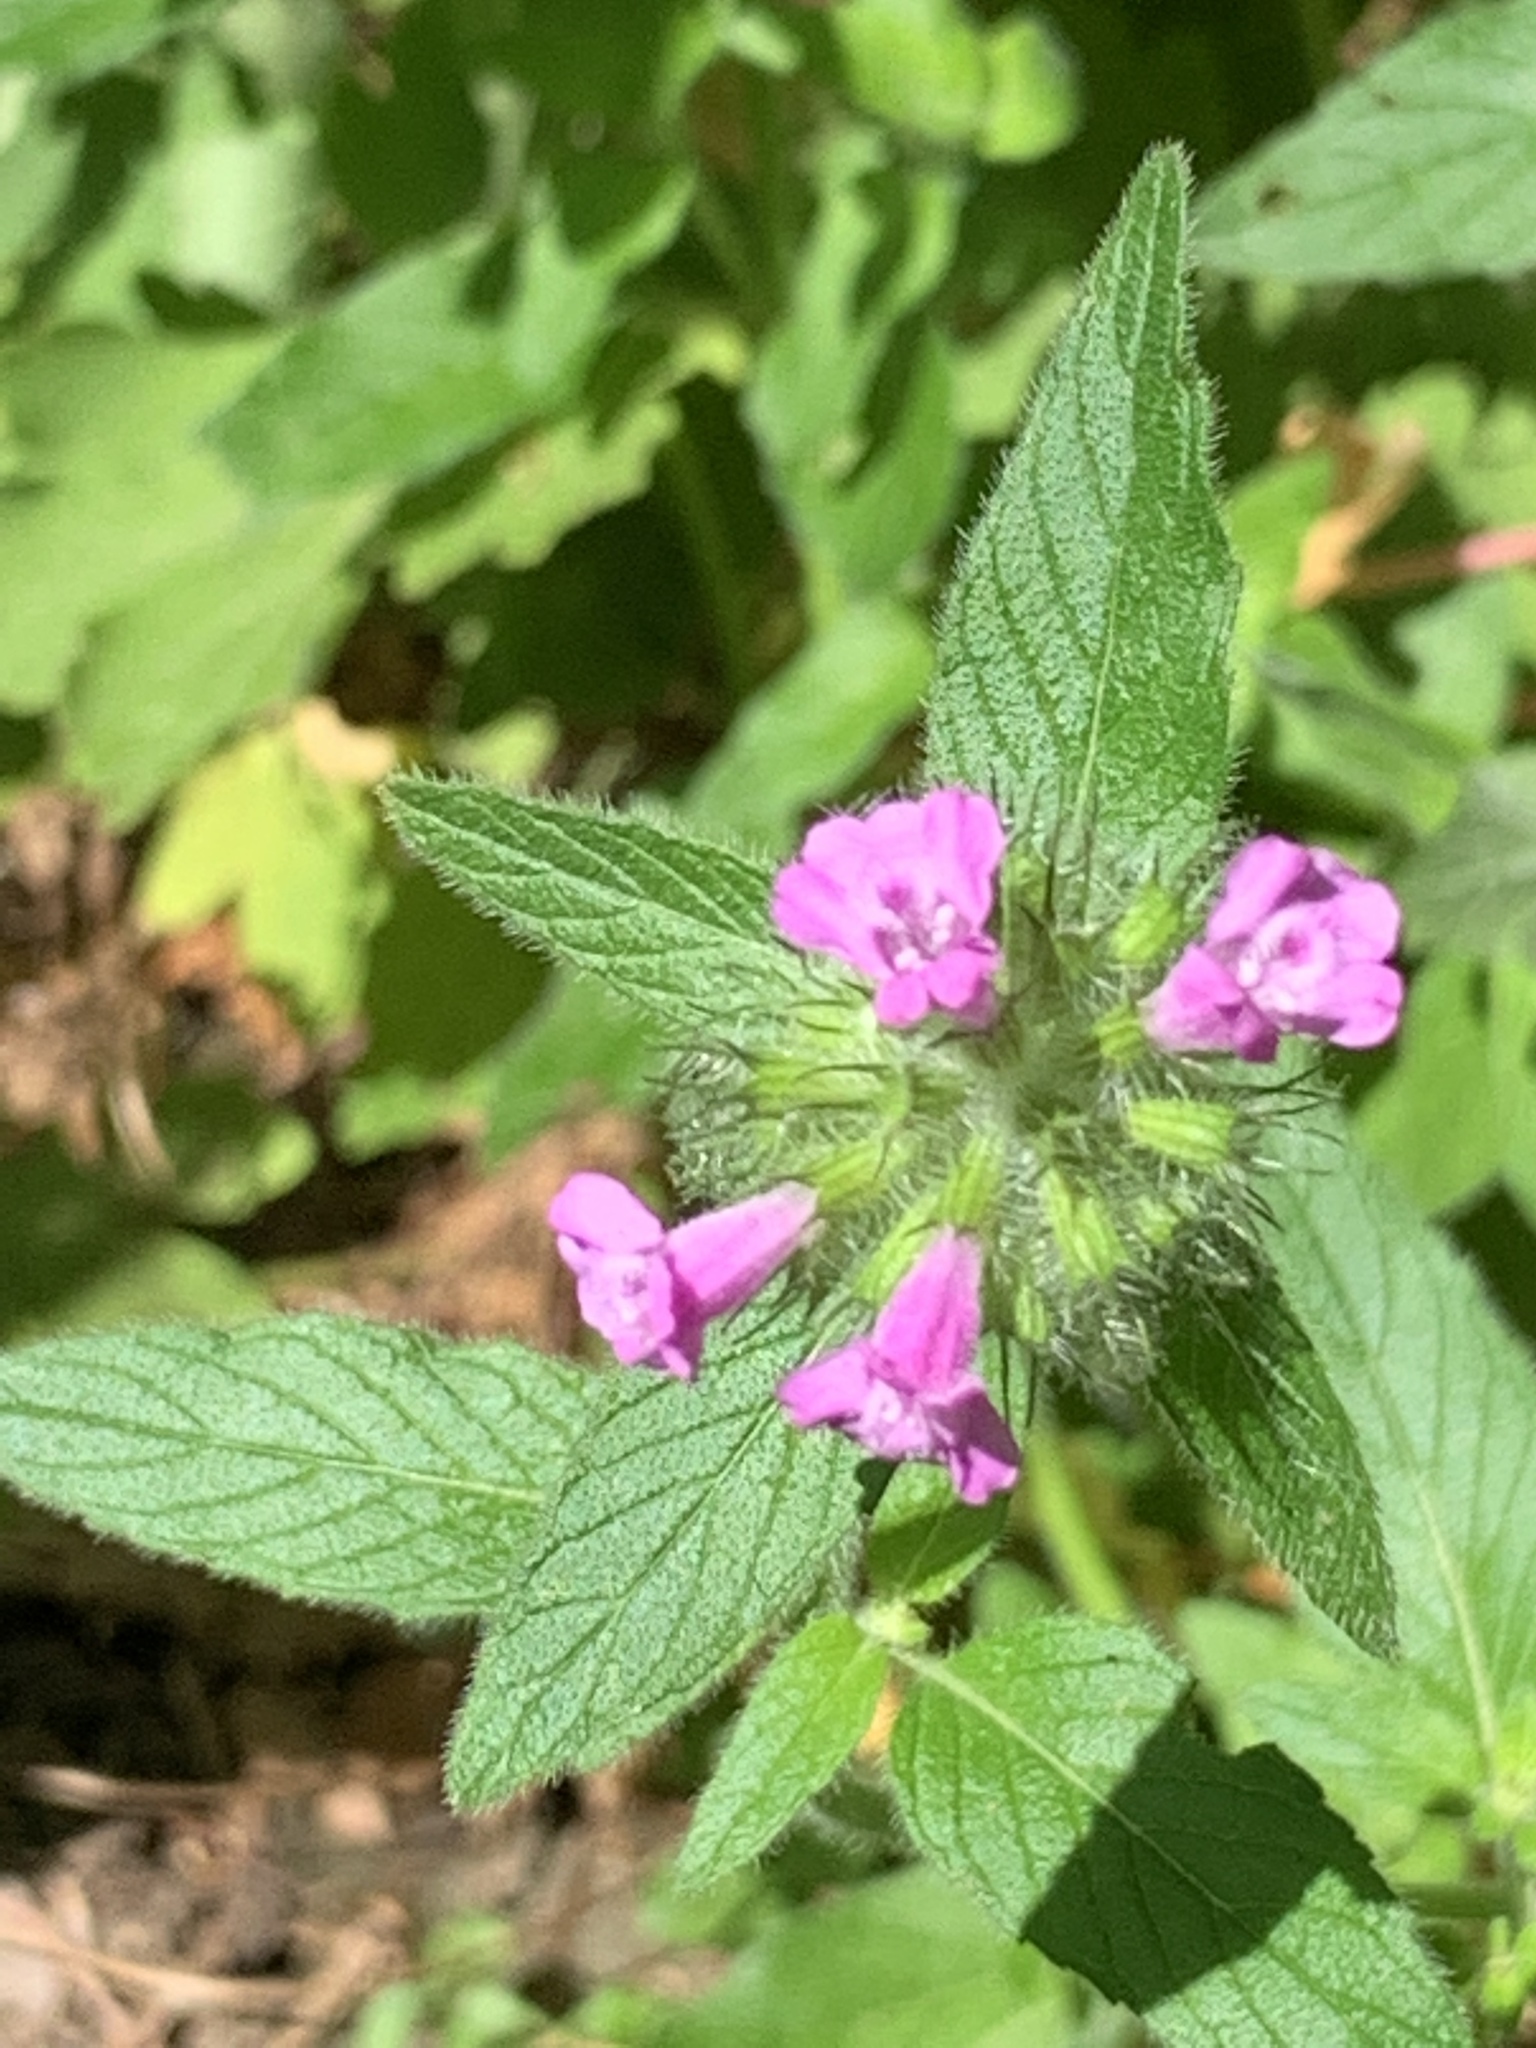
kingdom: Plantae
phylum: Tracheophyta
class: Magnoliopsida
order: Lamiales
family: Lamiaceae
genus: Clinopodium
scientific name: Clinopodium vulgare
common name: Wild basil
